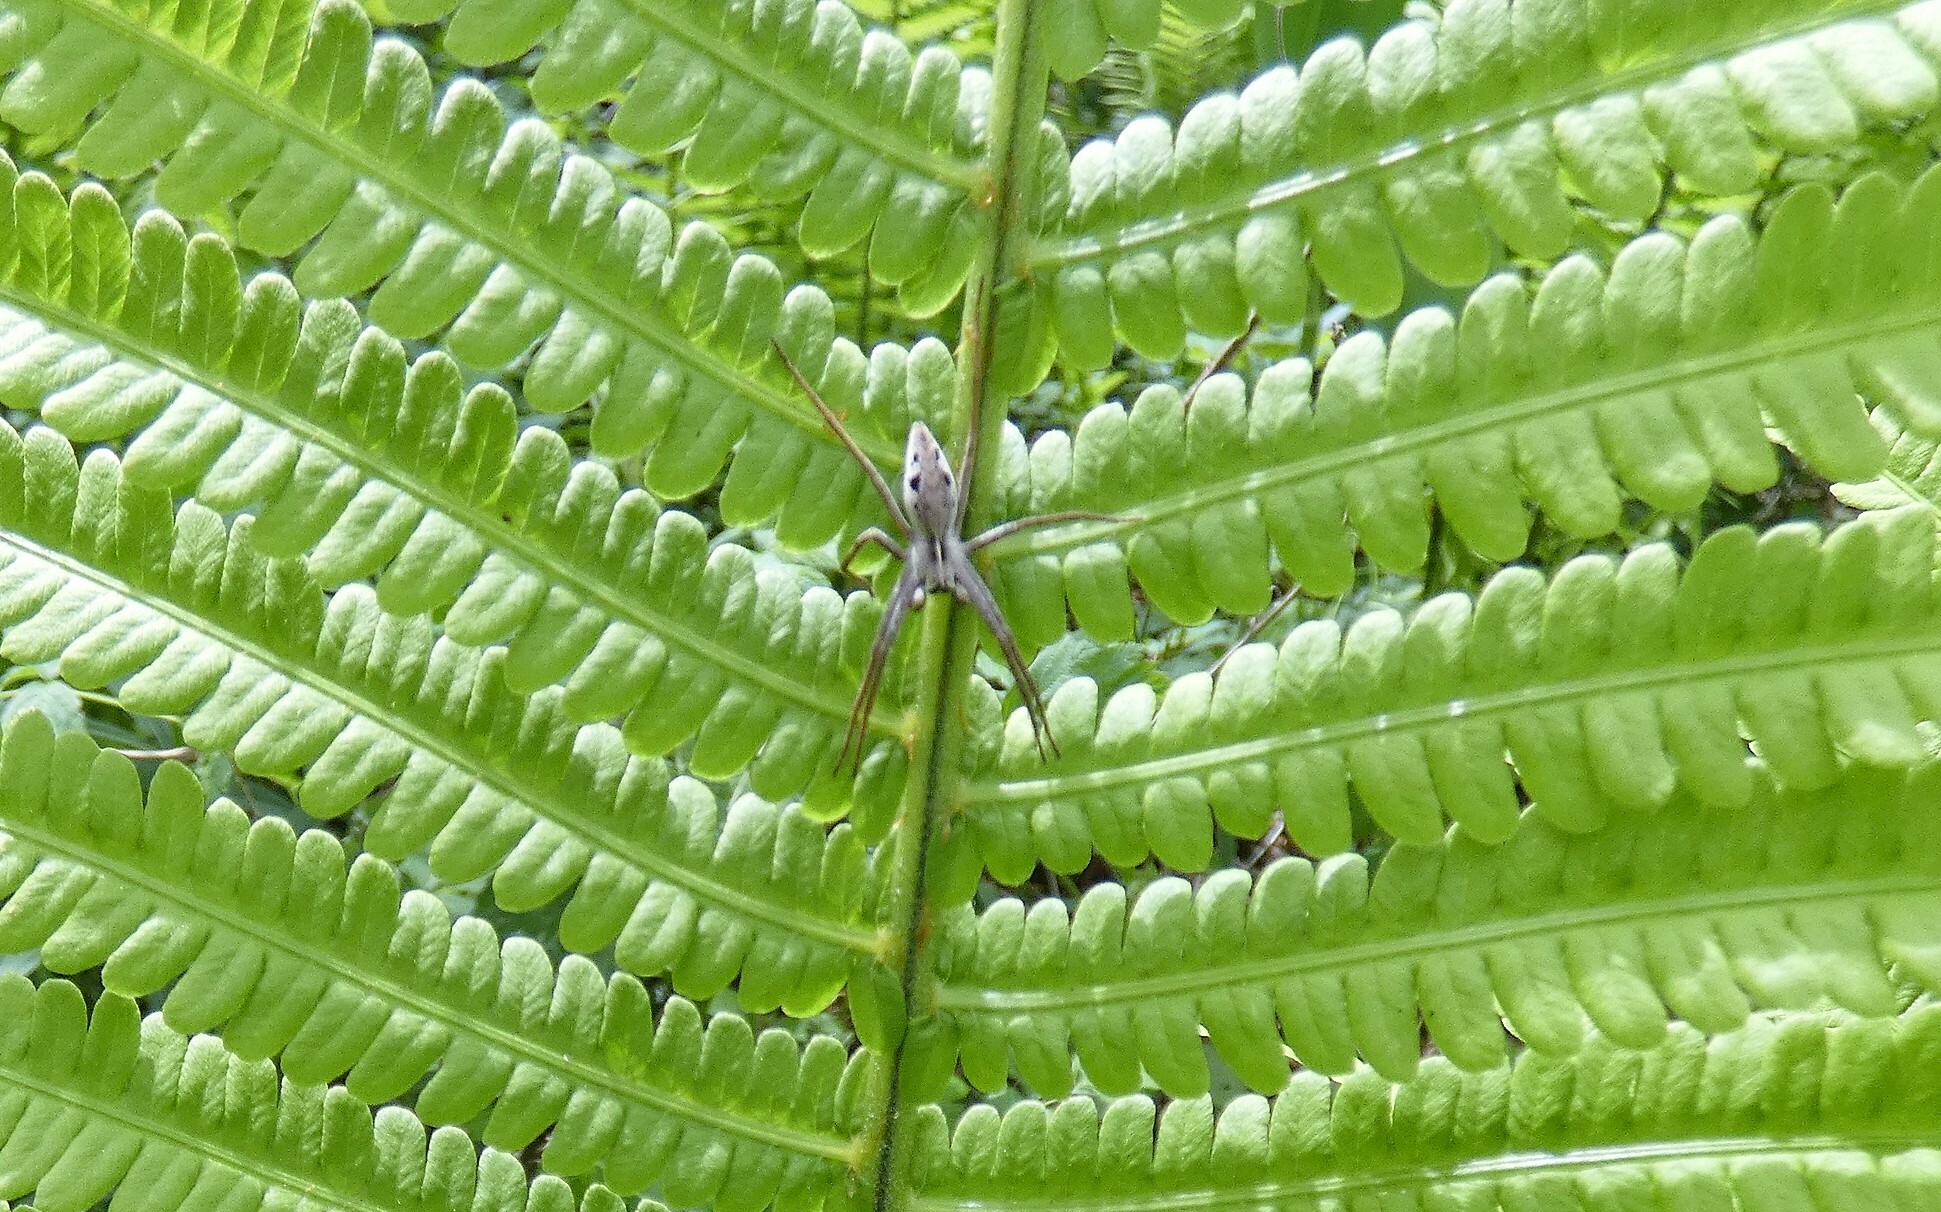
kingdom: Animalia
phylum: Arthropoda
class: Arachnida
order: Araneae
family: Pisauridae
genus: Pisaura
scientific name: Pisaura mirabilis
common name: Tent spider
